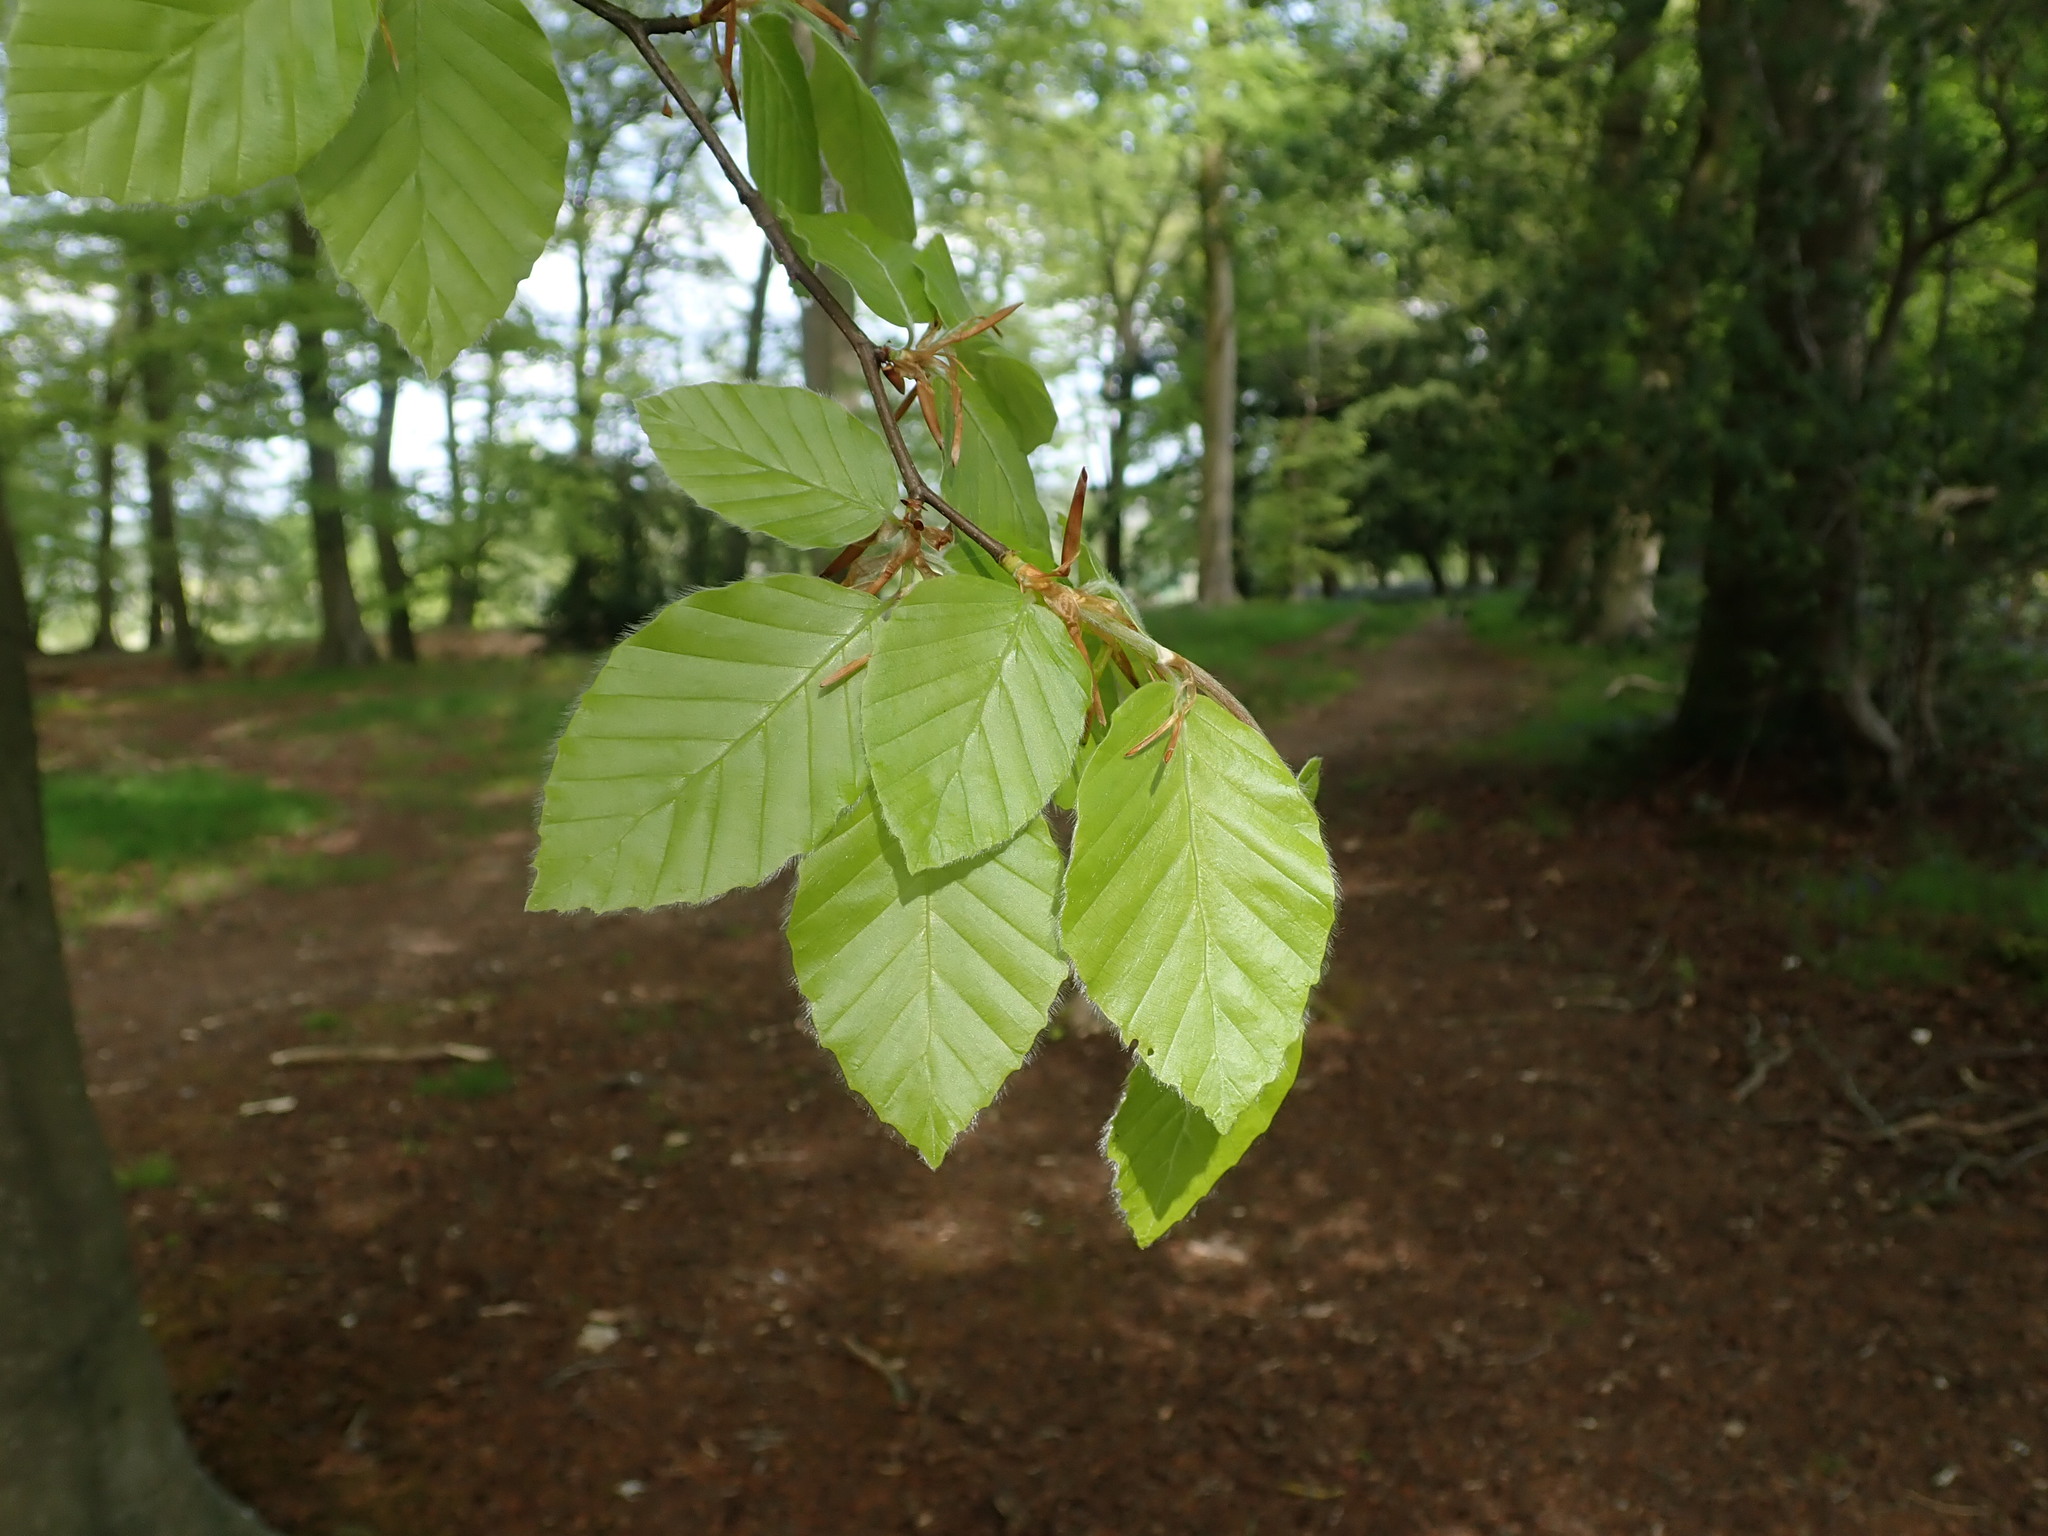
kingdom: Plantae
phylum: Tracheophyta
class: Magnoliopsida
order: Fagales
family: Fagaceae
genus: Fagus
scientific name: Fagus sylvatica
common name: Beech
